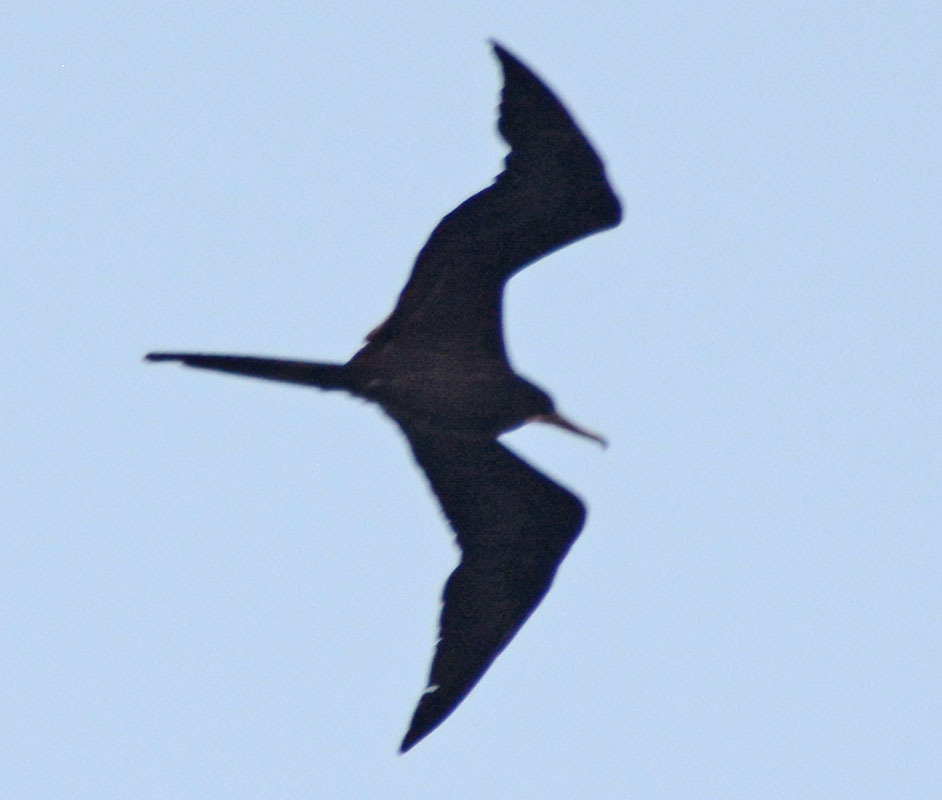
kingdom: Animalia
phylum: Chordata
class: Aves
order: Suliformes
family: Fregatidae
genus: Fregata
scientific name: Fregata magnificens
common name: Magnificent frigatebird
